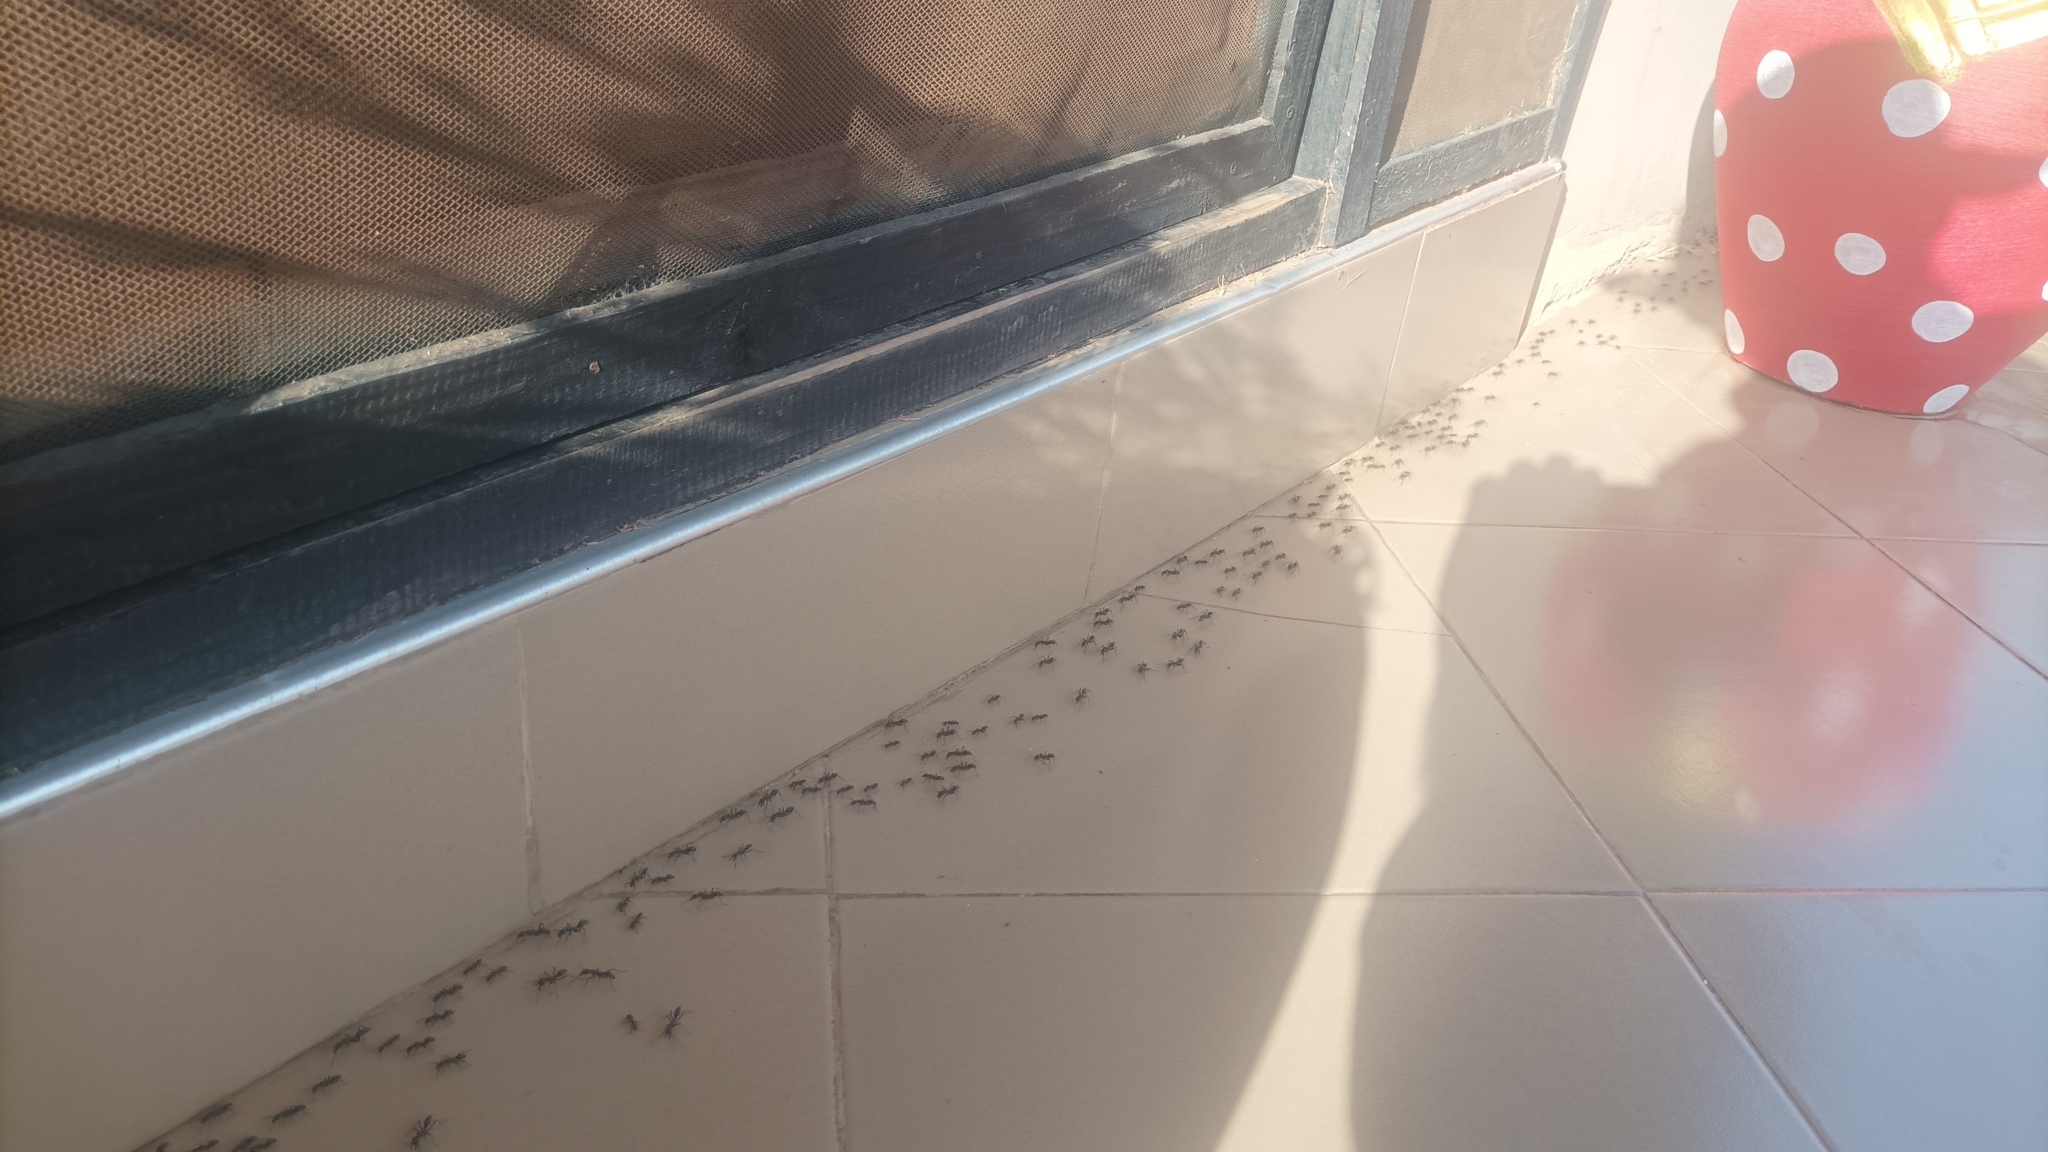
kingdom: Animalia
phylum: Arthropoda
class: Insecta
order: Hymenoptera
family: Formicidae
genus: Megaponera
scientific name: Megaponera analis
